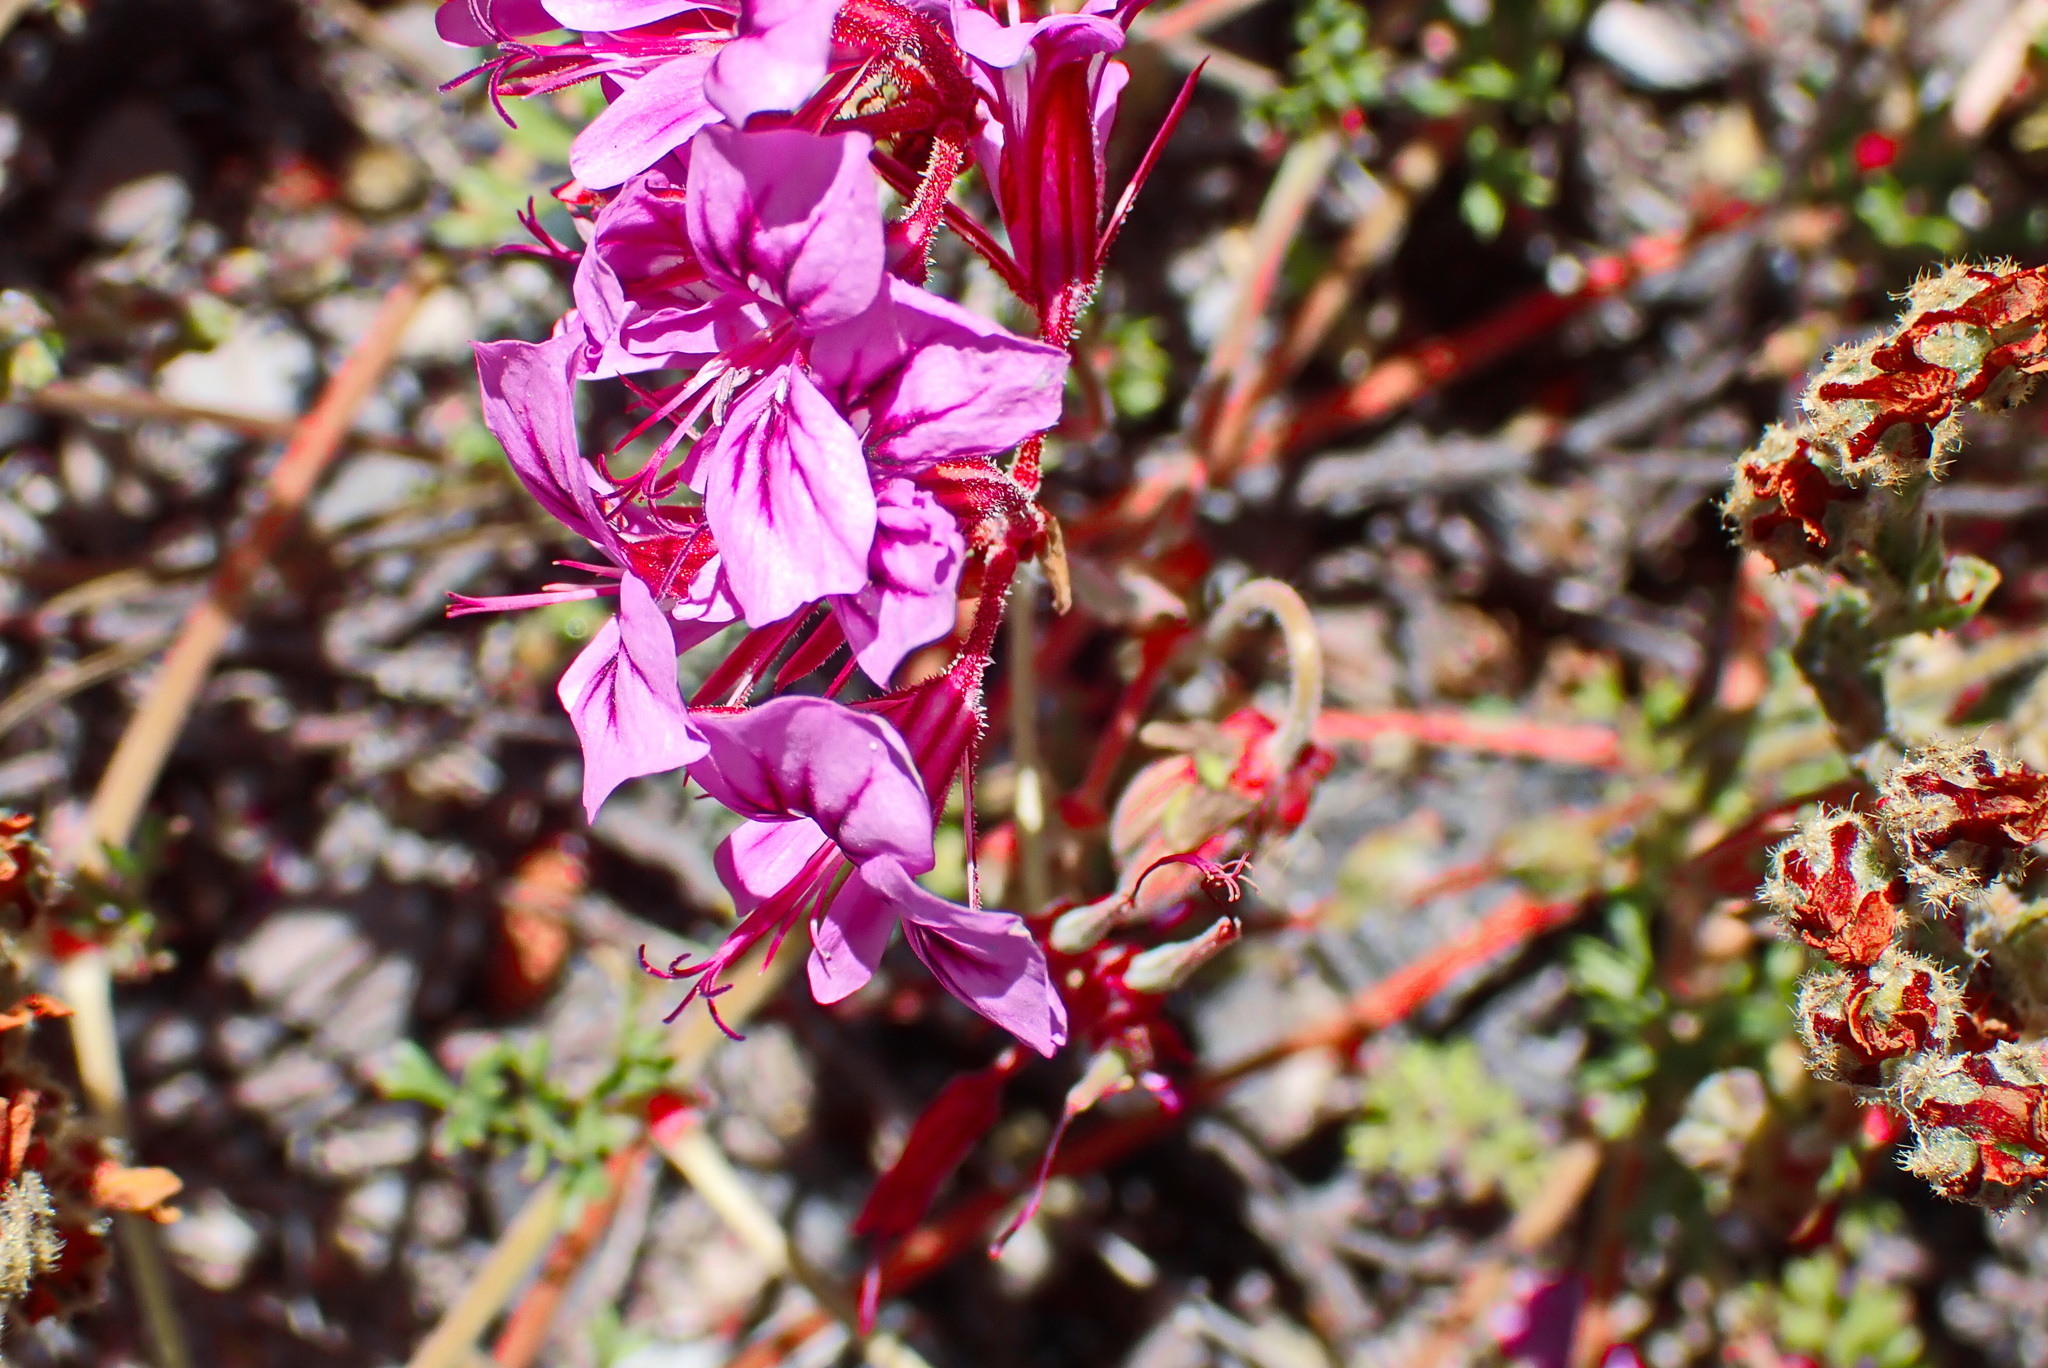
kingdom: Plantae
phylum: Tracheophyta
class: Magnoliopsida
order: Geraniales
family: Geraniaceae
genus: Pelargonium
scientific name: Pelargonium multicaule
